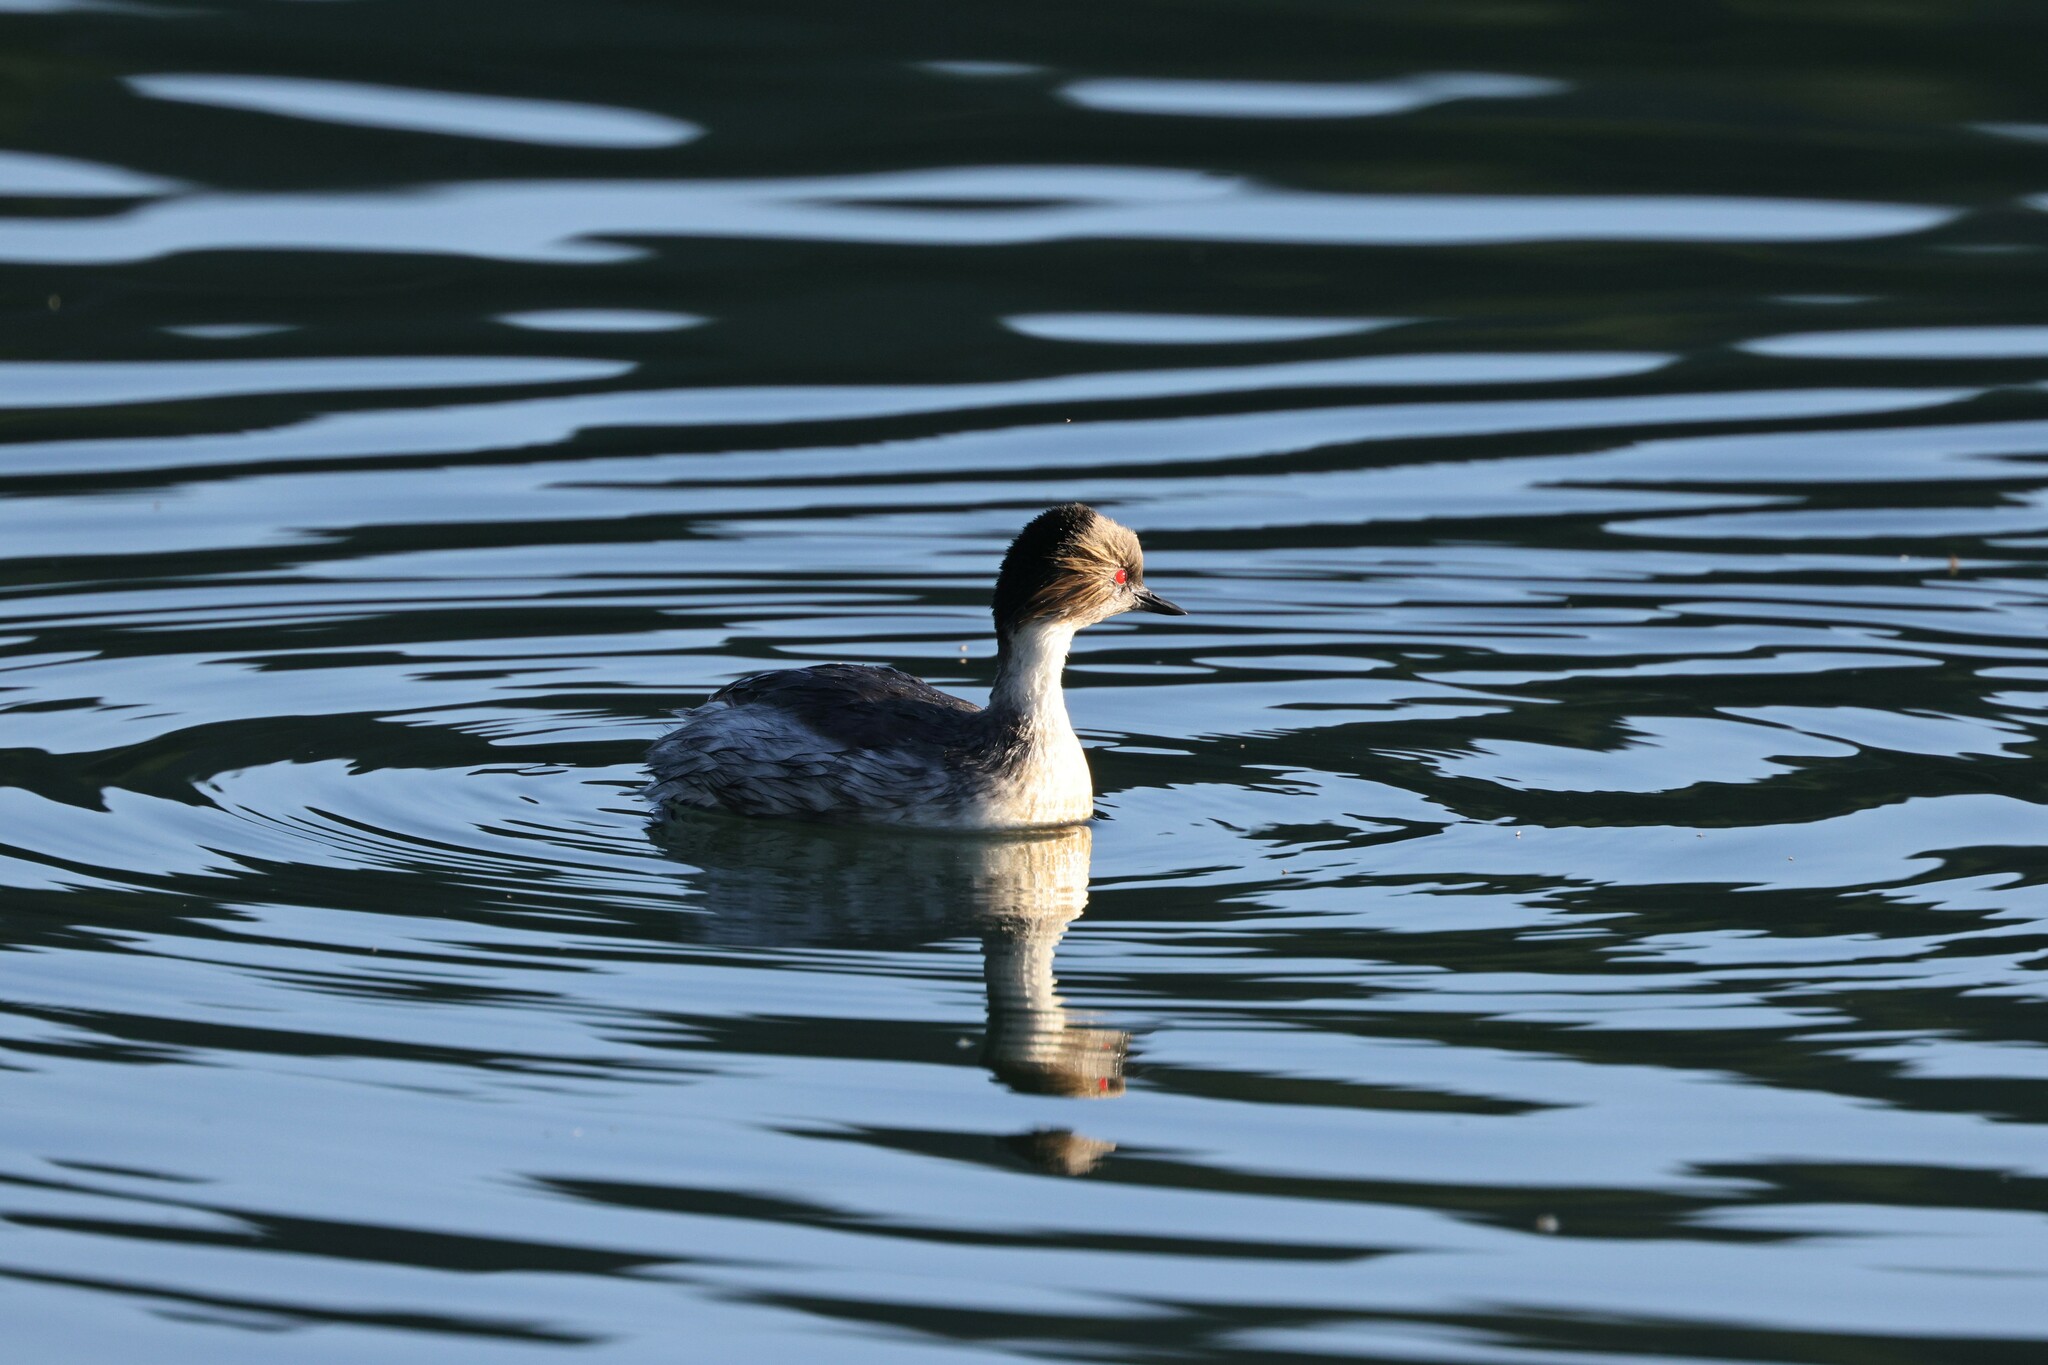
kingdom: Animalia
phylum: Chordata
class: Aves
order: Podicipediformes
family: Podicipedidae
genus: Podiceps
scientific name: Podiceps occipitalis
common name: Silvery grebe
